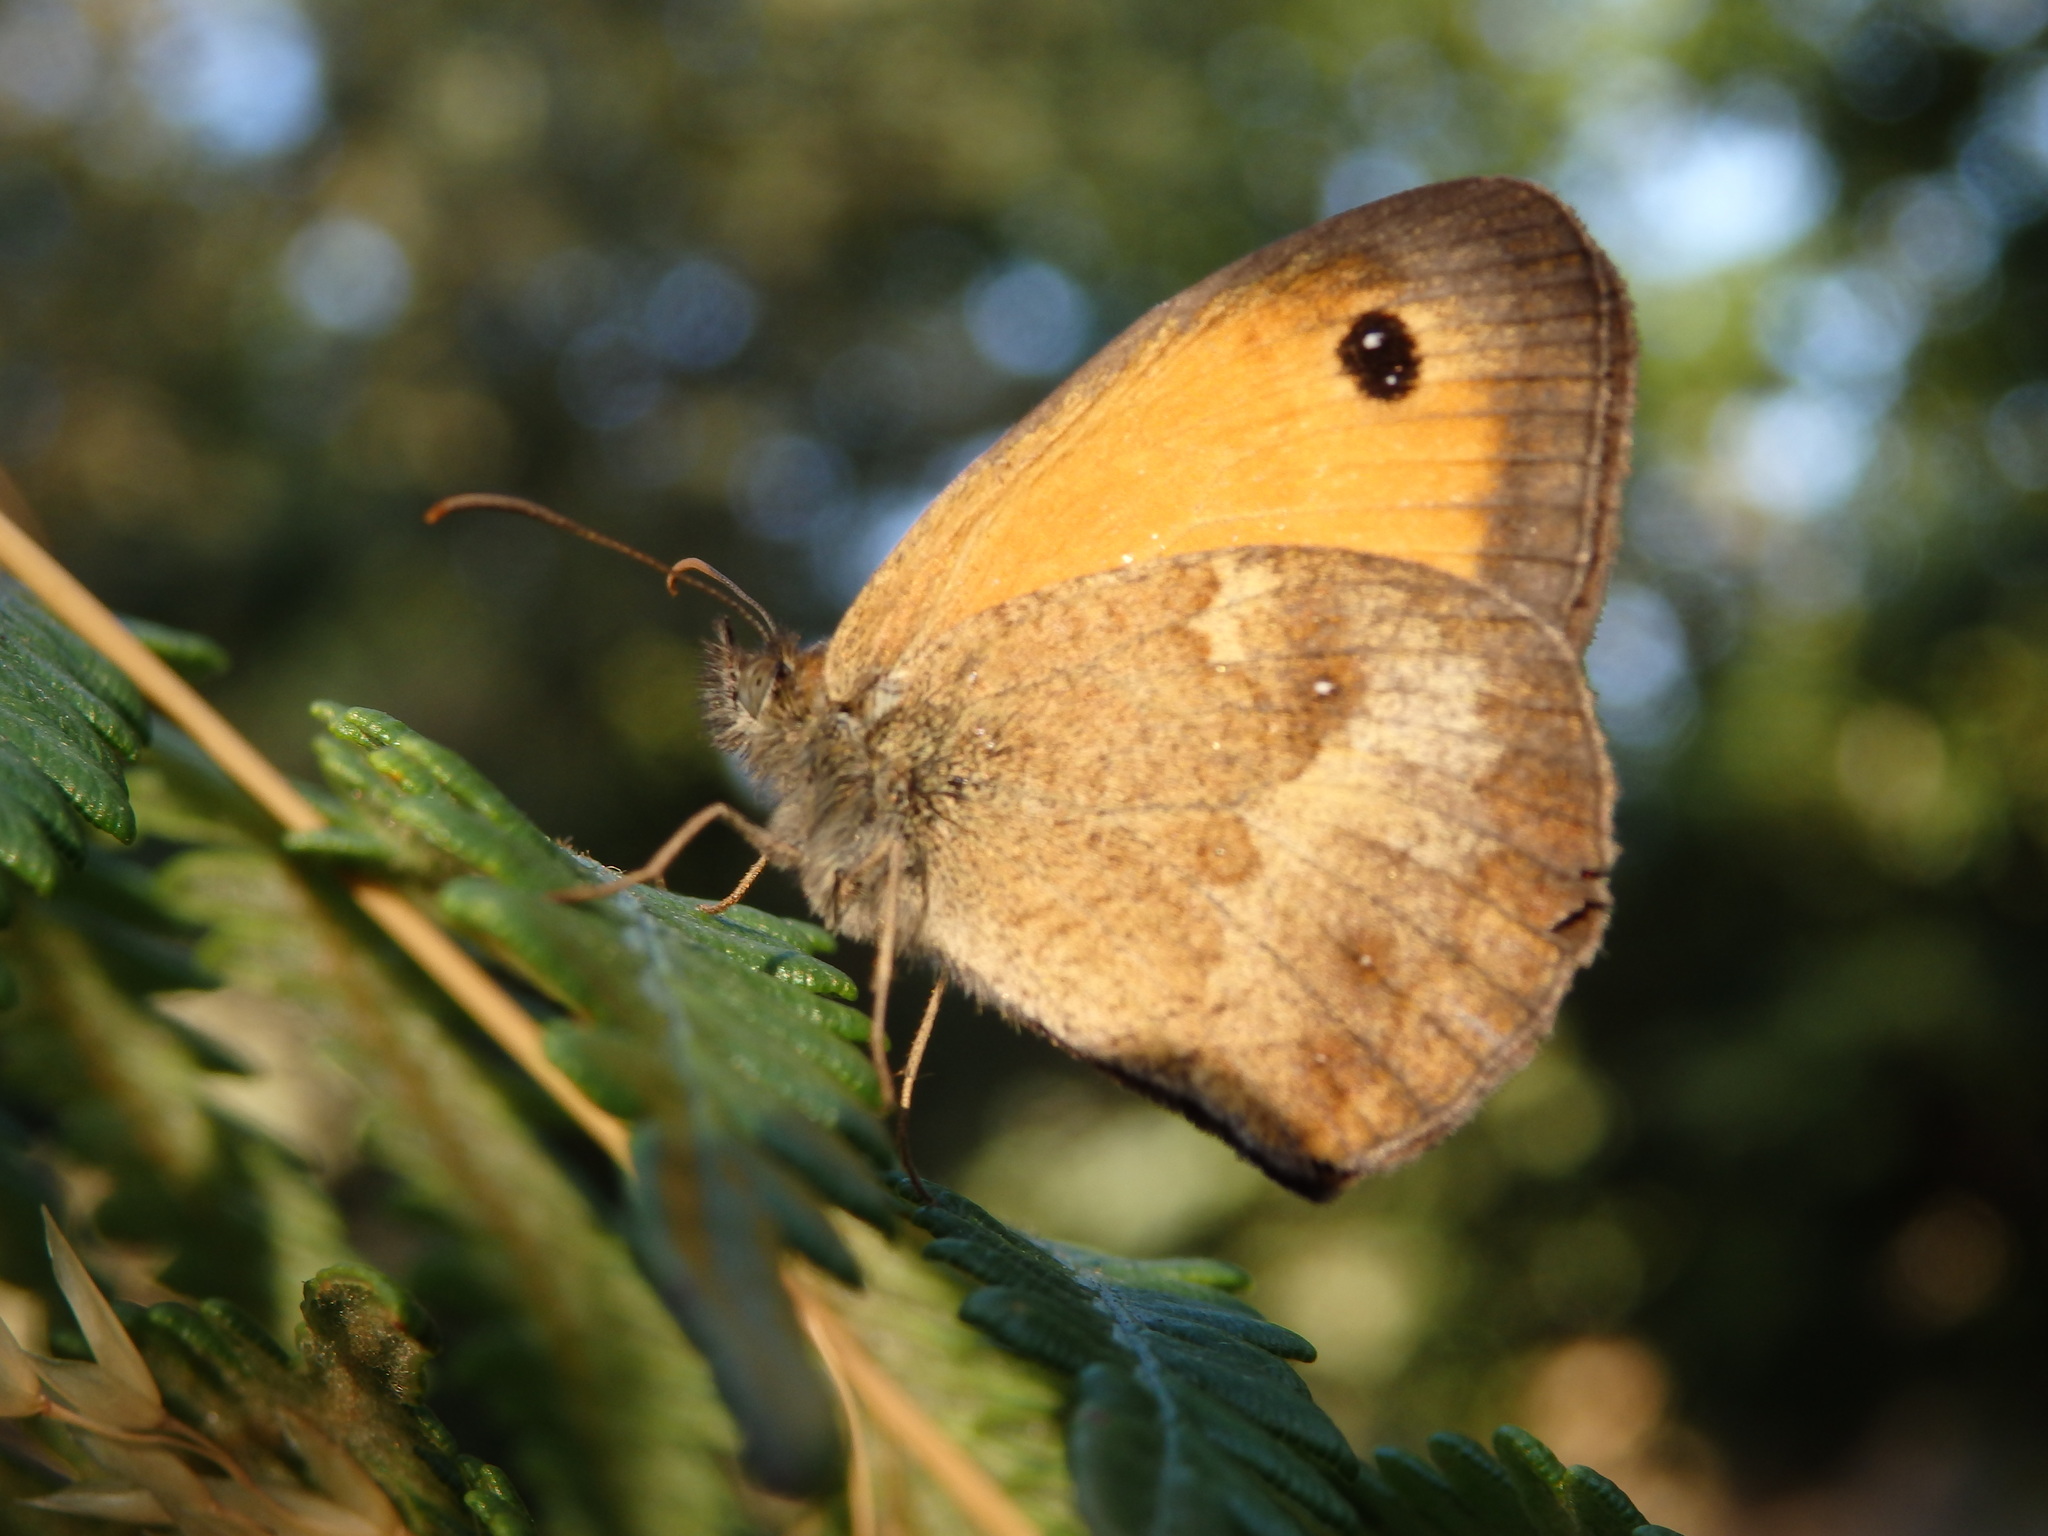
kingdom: Animalia
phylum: Arthropoda
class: Insecta
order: Lepidoptera
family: Nymphalidae
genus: Pyronia
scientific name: Pyronia tithonus
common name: Gatekeeper
